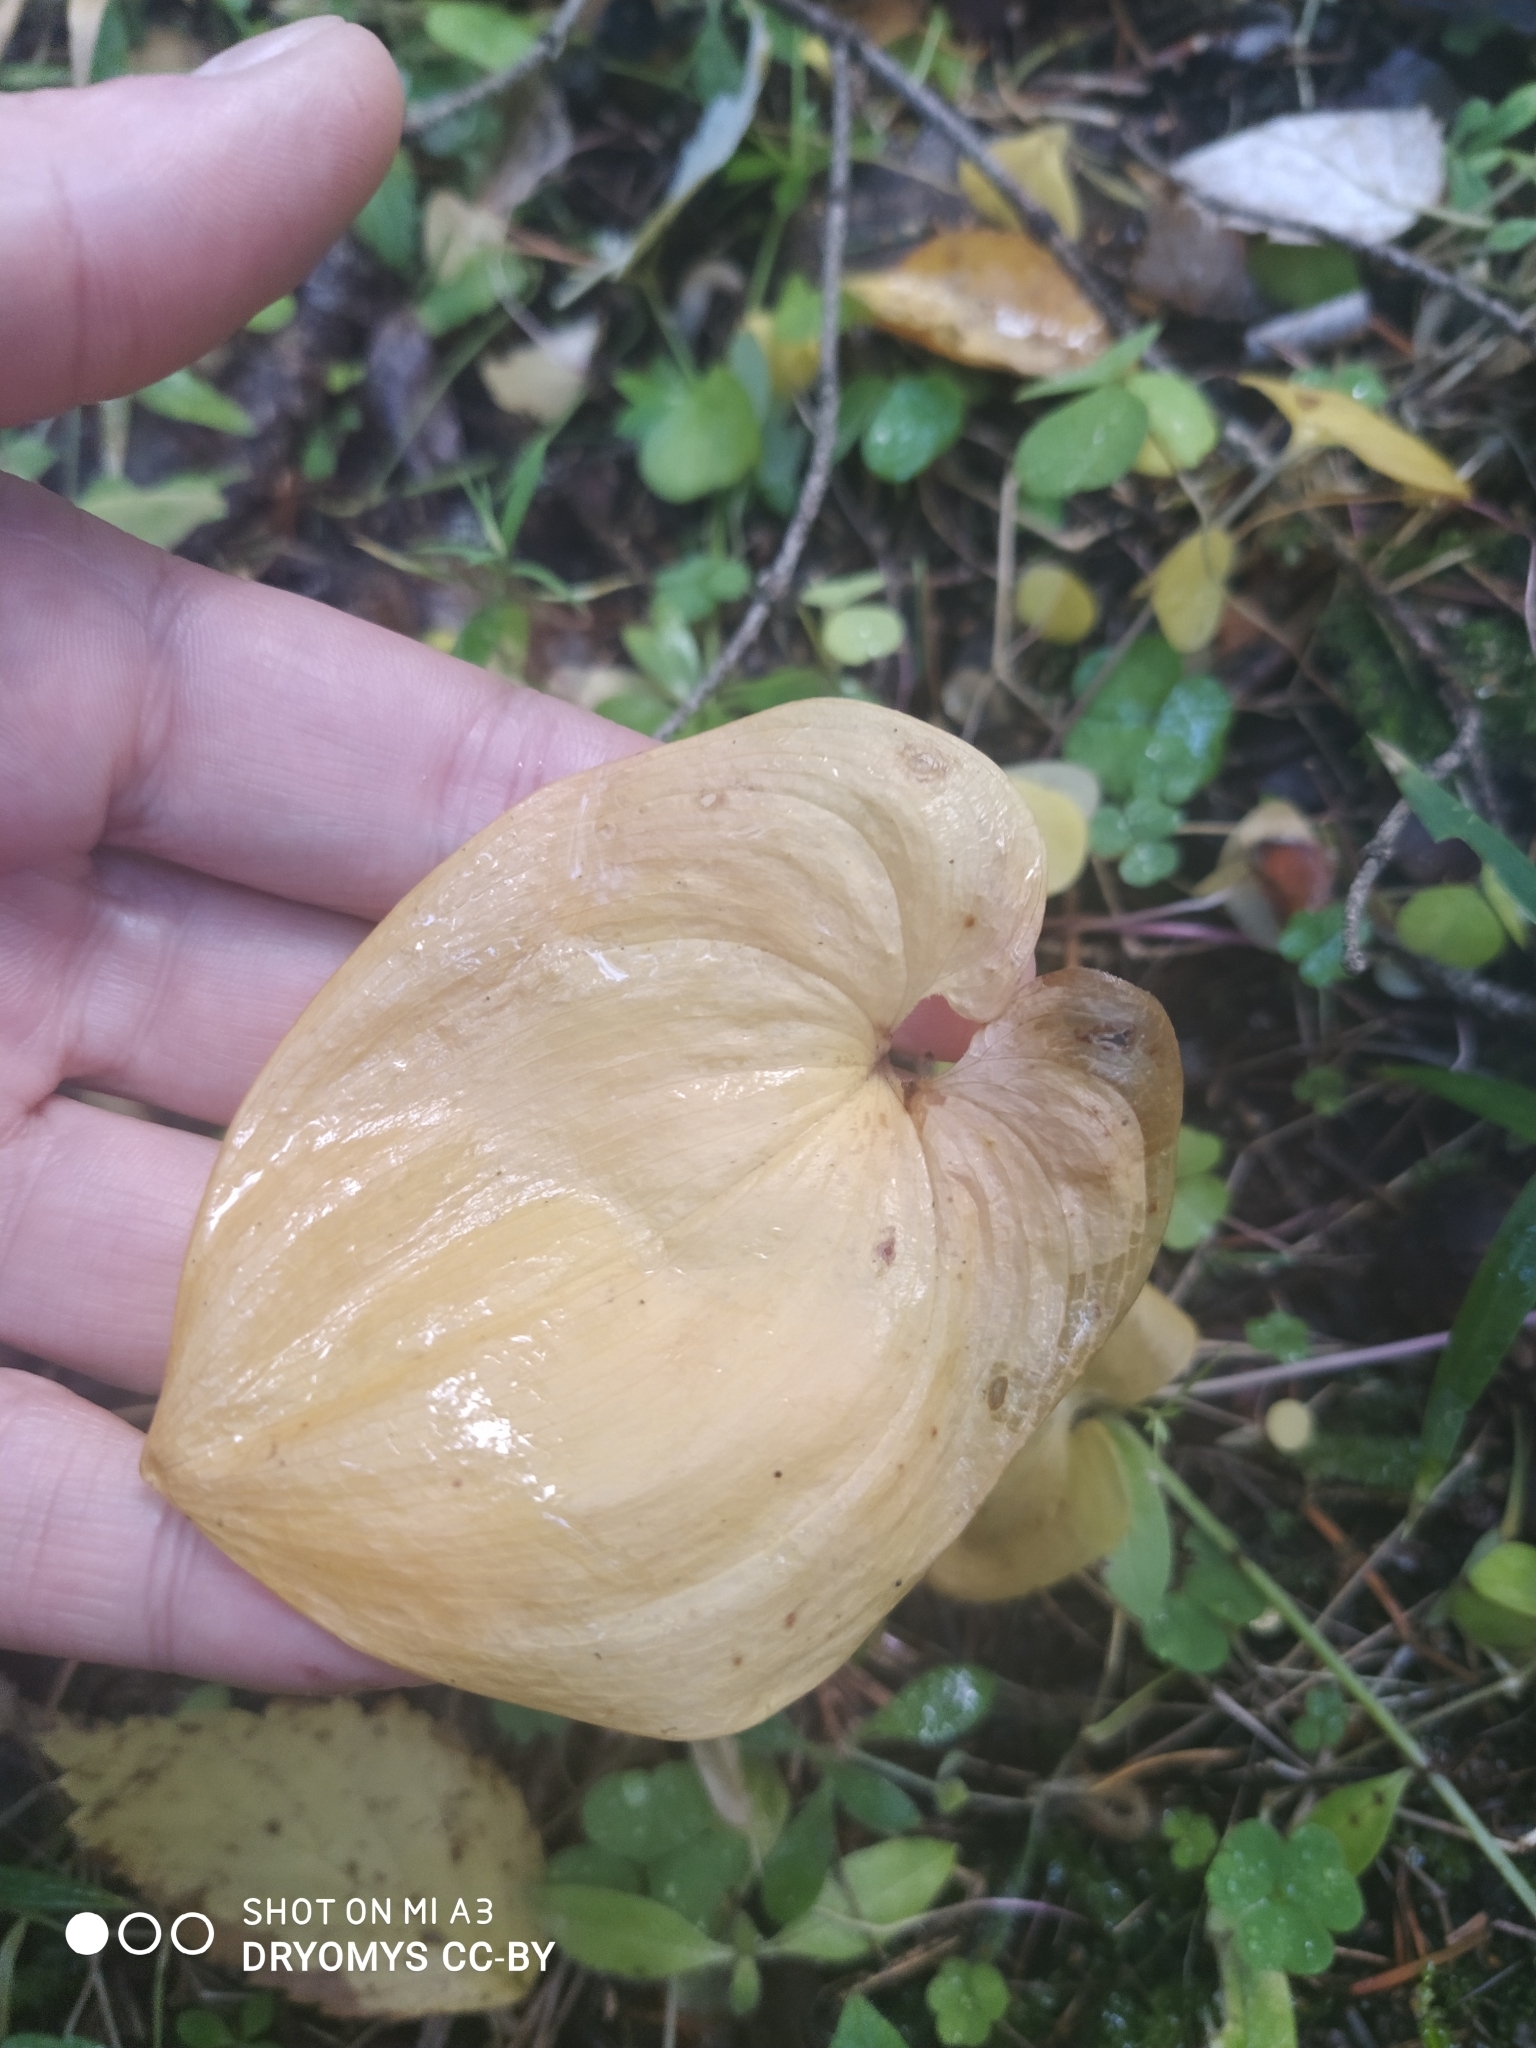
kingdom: Plantae
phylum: Tracheophyta
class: Liliopsida
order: Asparagales
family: Asparagaceae
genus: Maianthemum
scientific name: Maianthemum bifolium
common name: May lily
